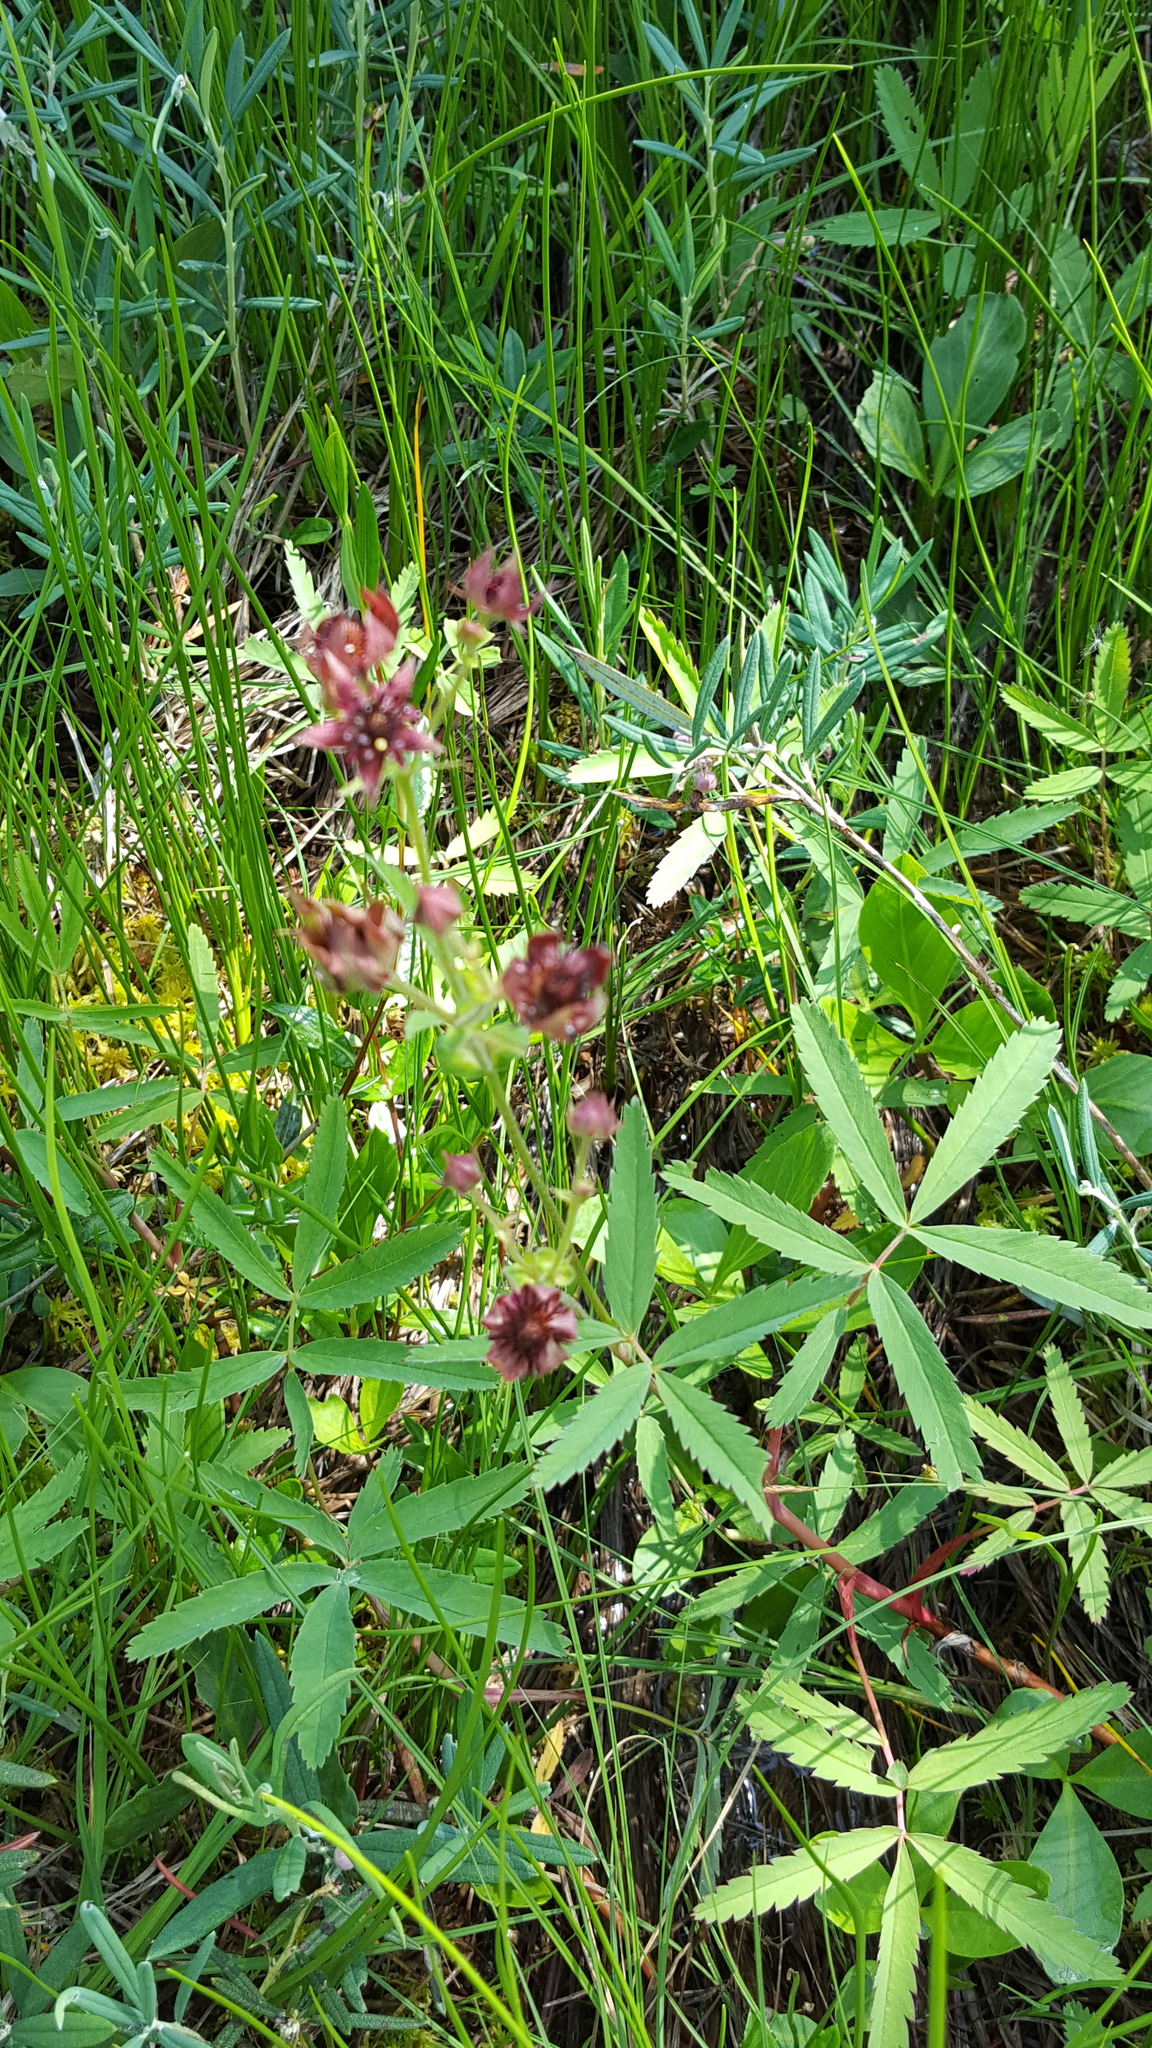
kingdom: Plantae
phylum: Tracheophyta
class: Magnoliopsida
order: Rosales
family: Rosaceae
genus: Comarum
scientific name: Comarum palustre
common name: Marsh cinquefoil
